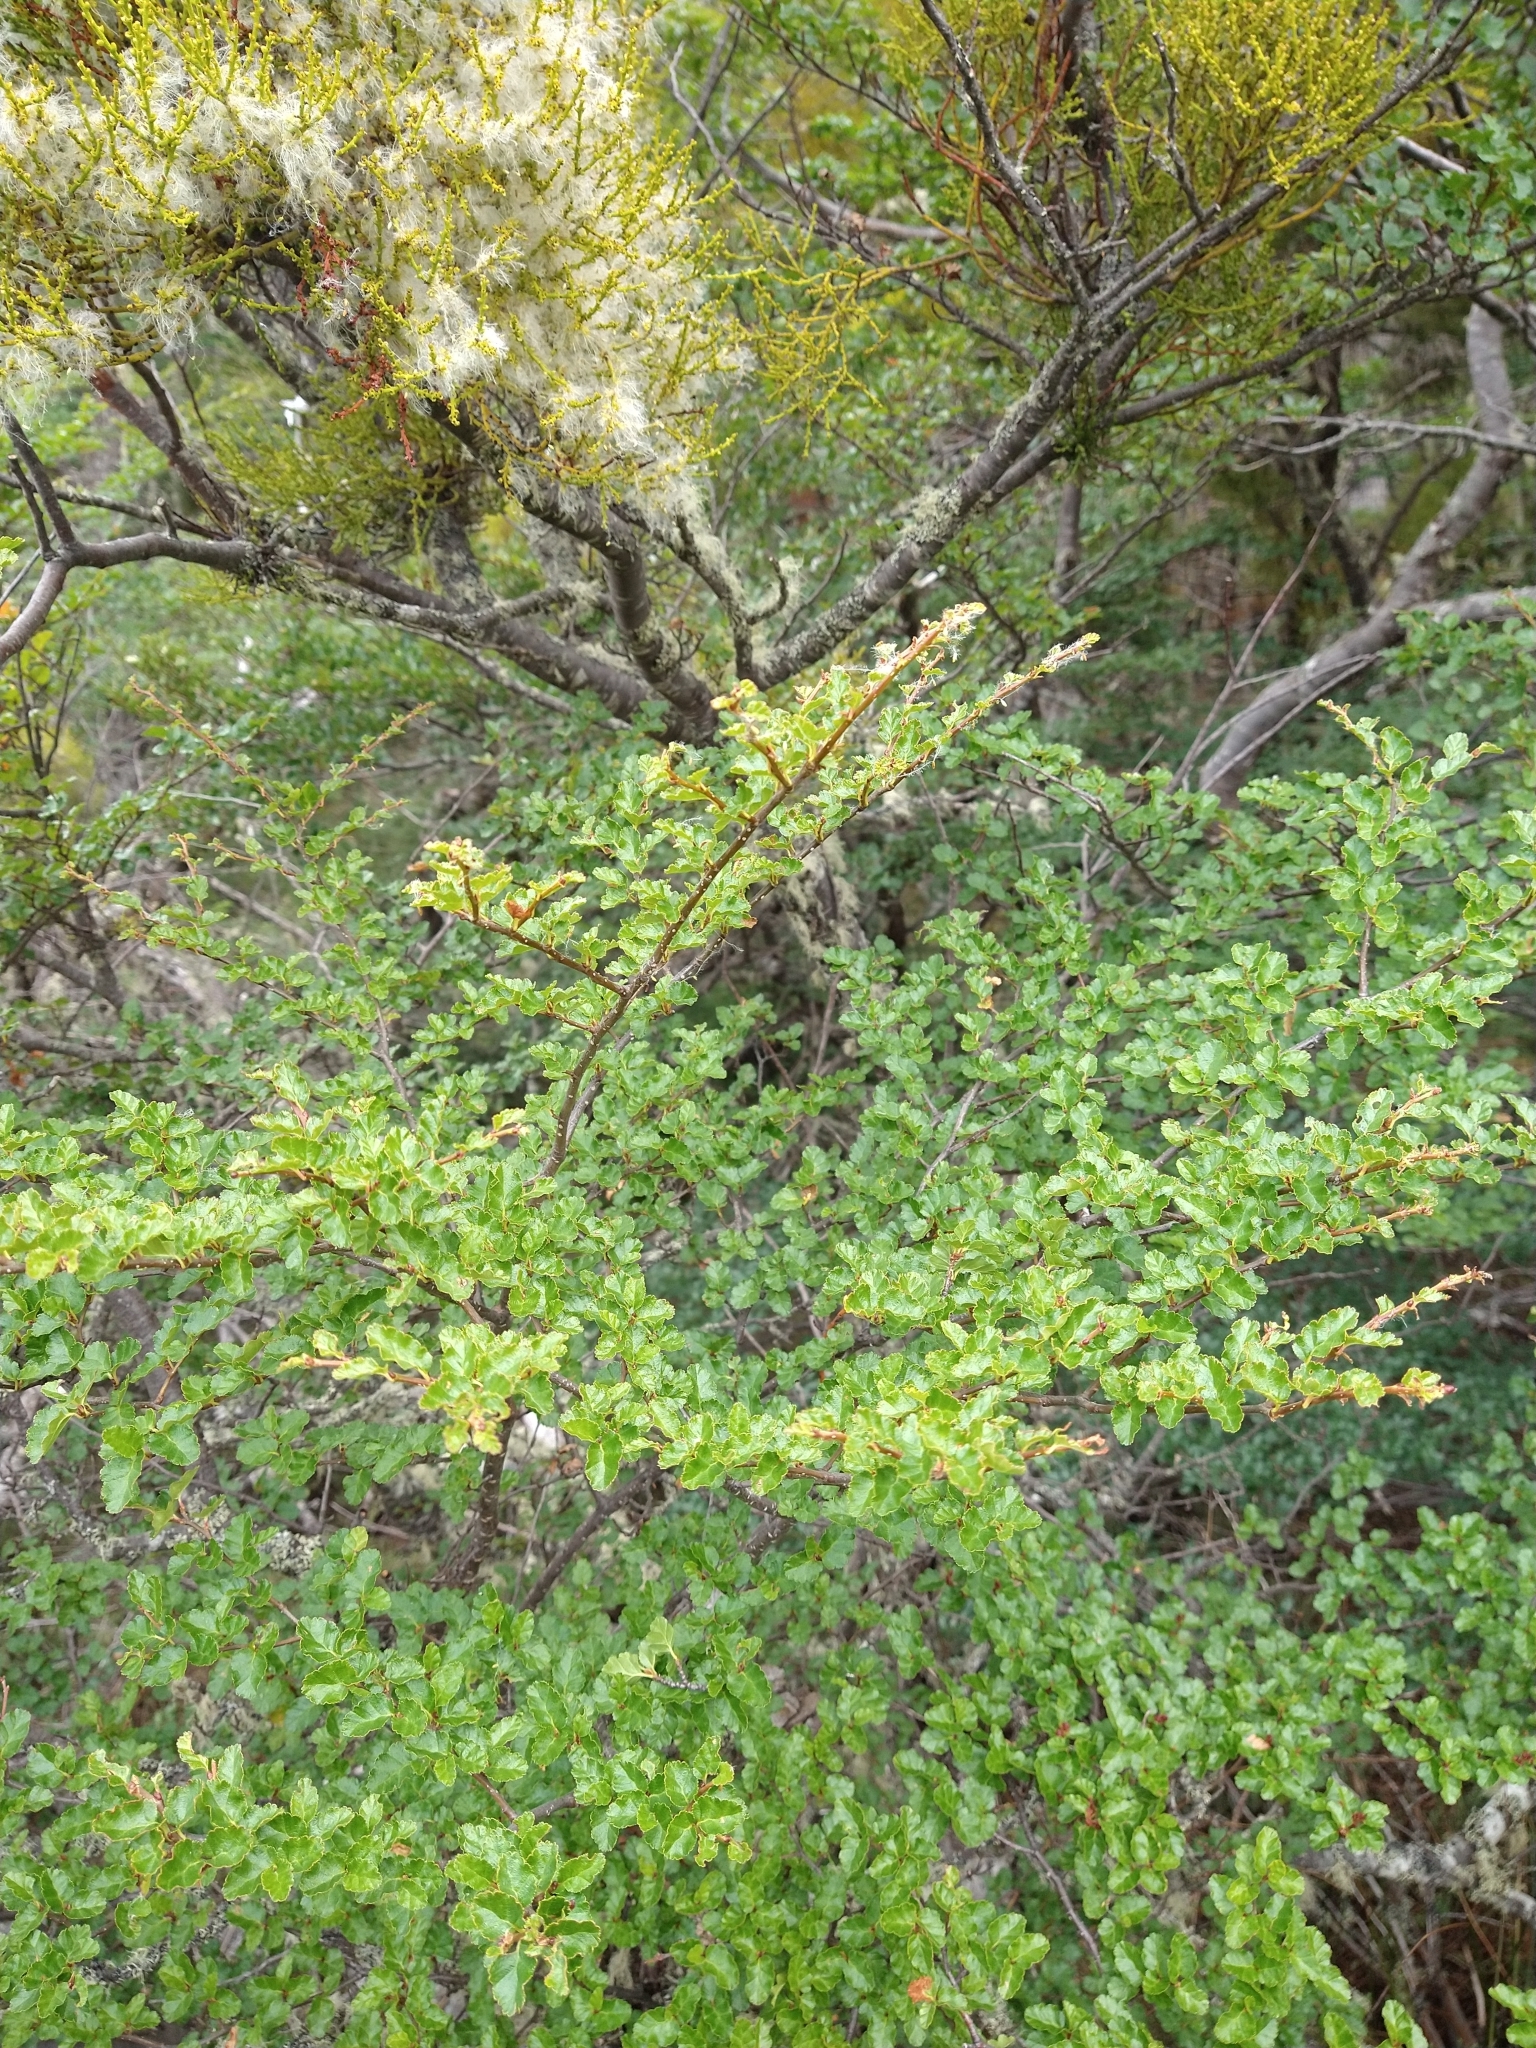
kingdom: Plantae
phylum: Tracheophyta
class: Magnoliopsida
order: Fagales
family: Nothofagaceae
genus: Nothofagus
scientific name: Nothofagus antarctica
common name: Antarctic beech
